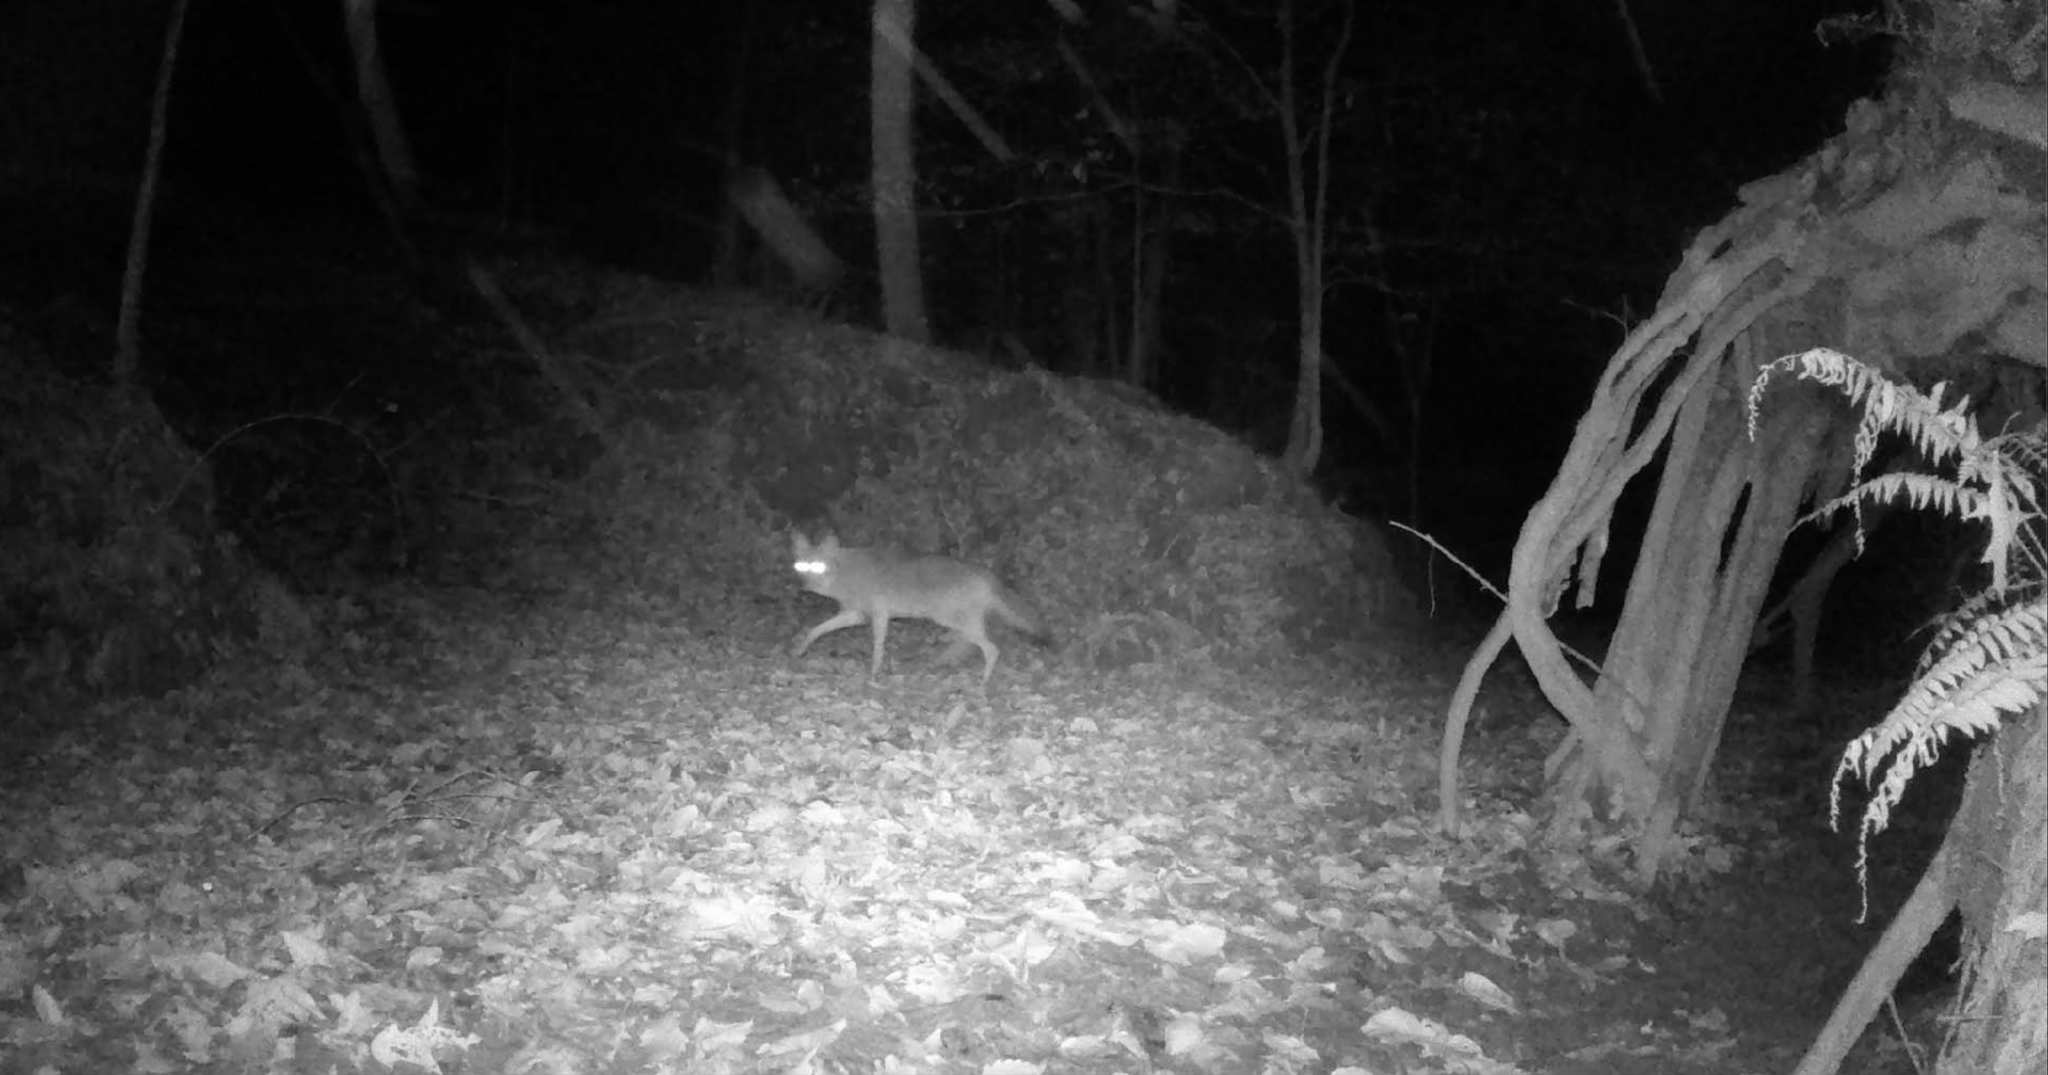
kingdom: Animalia
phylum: Chordata
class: Mammalia
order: Carnivora
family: Canidae
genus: Canis
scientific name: Canis latrans
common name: Coyote
